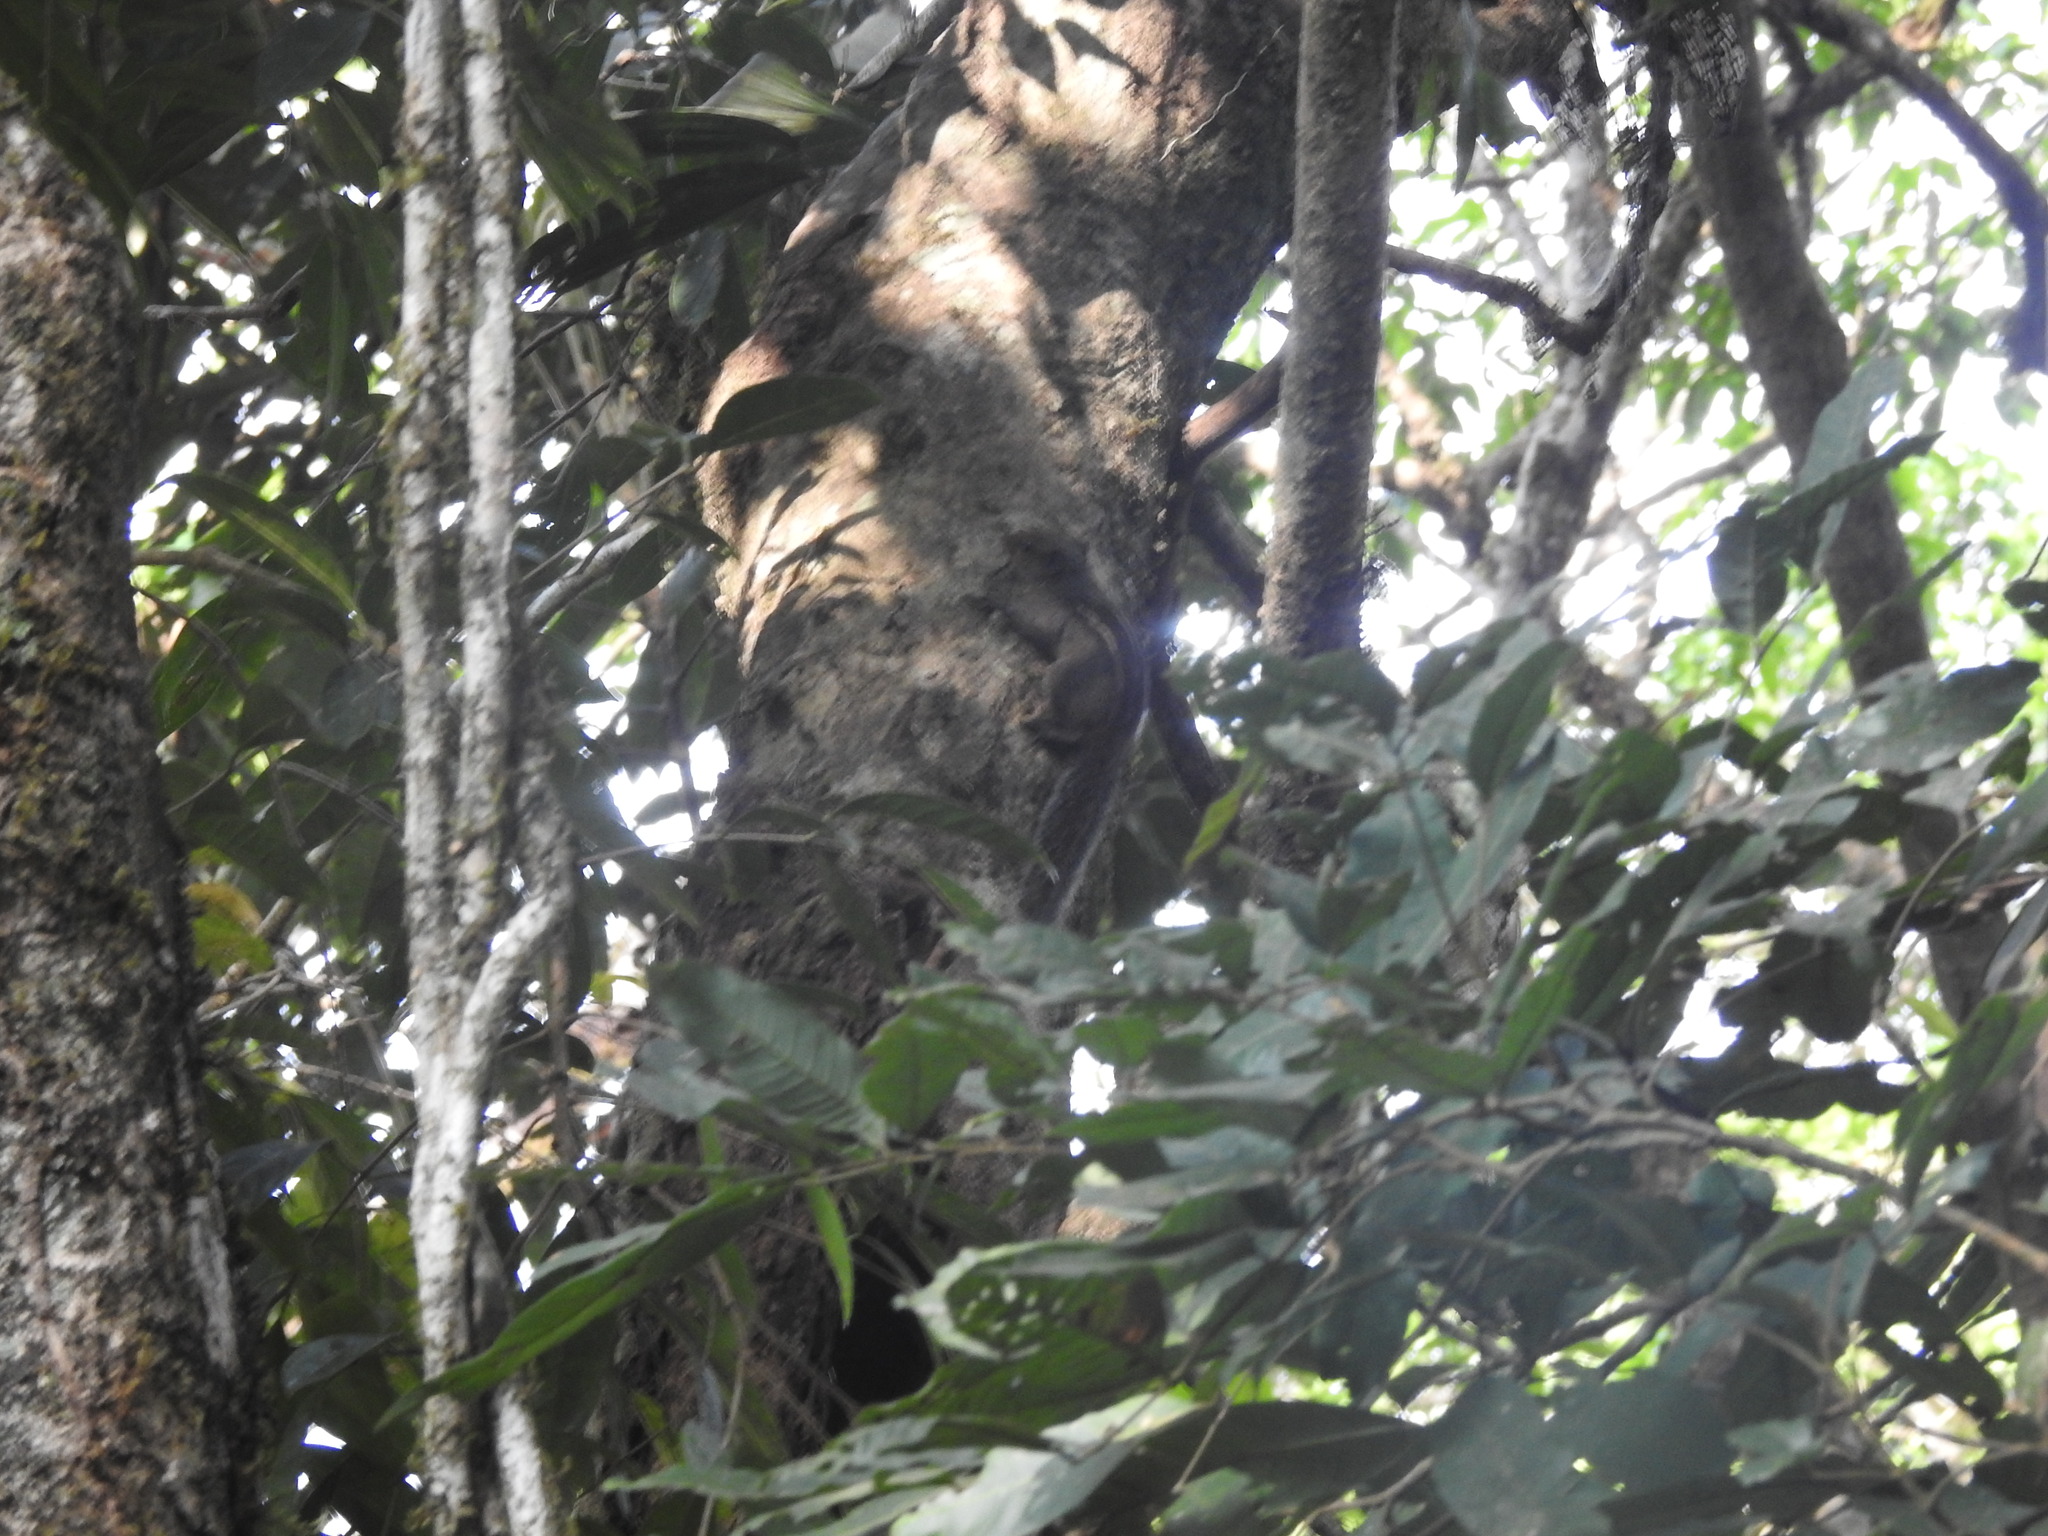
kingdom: Animalia
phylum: Chordata
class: Mammalia
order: Rodentia
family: Sciuridae
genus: Funambulus
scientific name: Funambulus tristriatus
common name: Jungle palm squirrel
